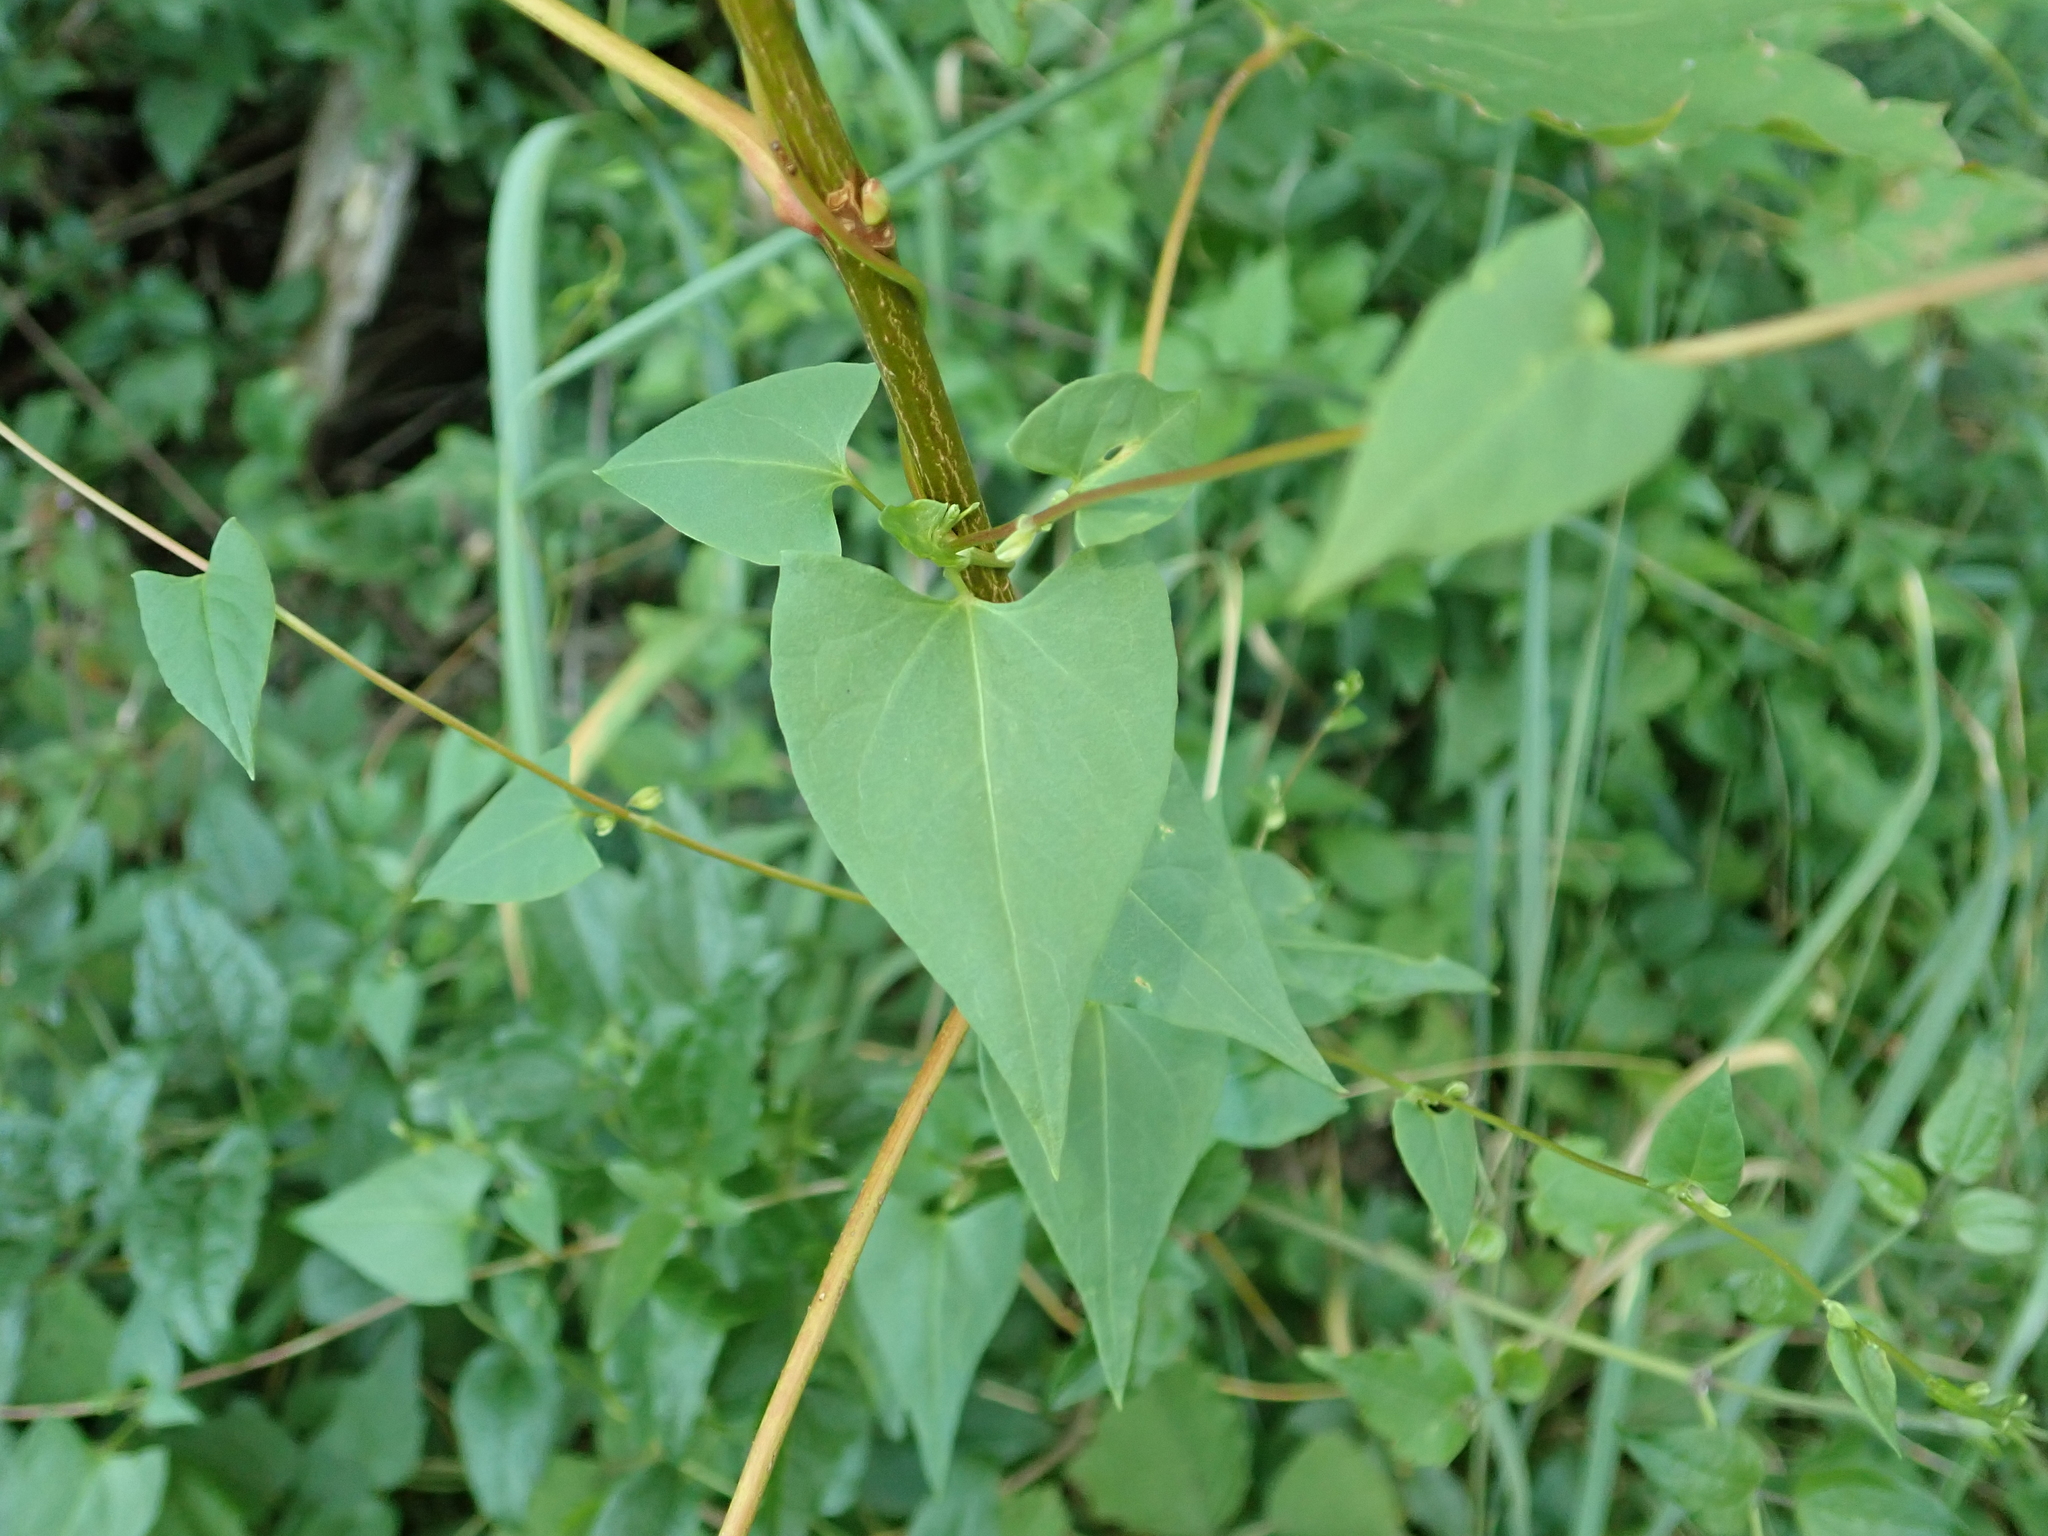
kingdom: Plantae
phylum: Tracheophyta
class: Magnoliopsida
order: Caryophyllales
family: Polygonaceae
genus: Fallopia
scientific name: Fallopia convolvulus
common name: Black bindweed
